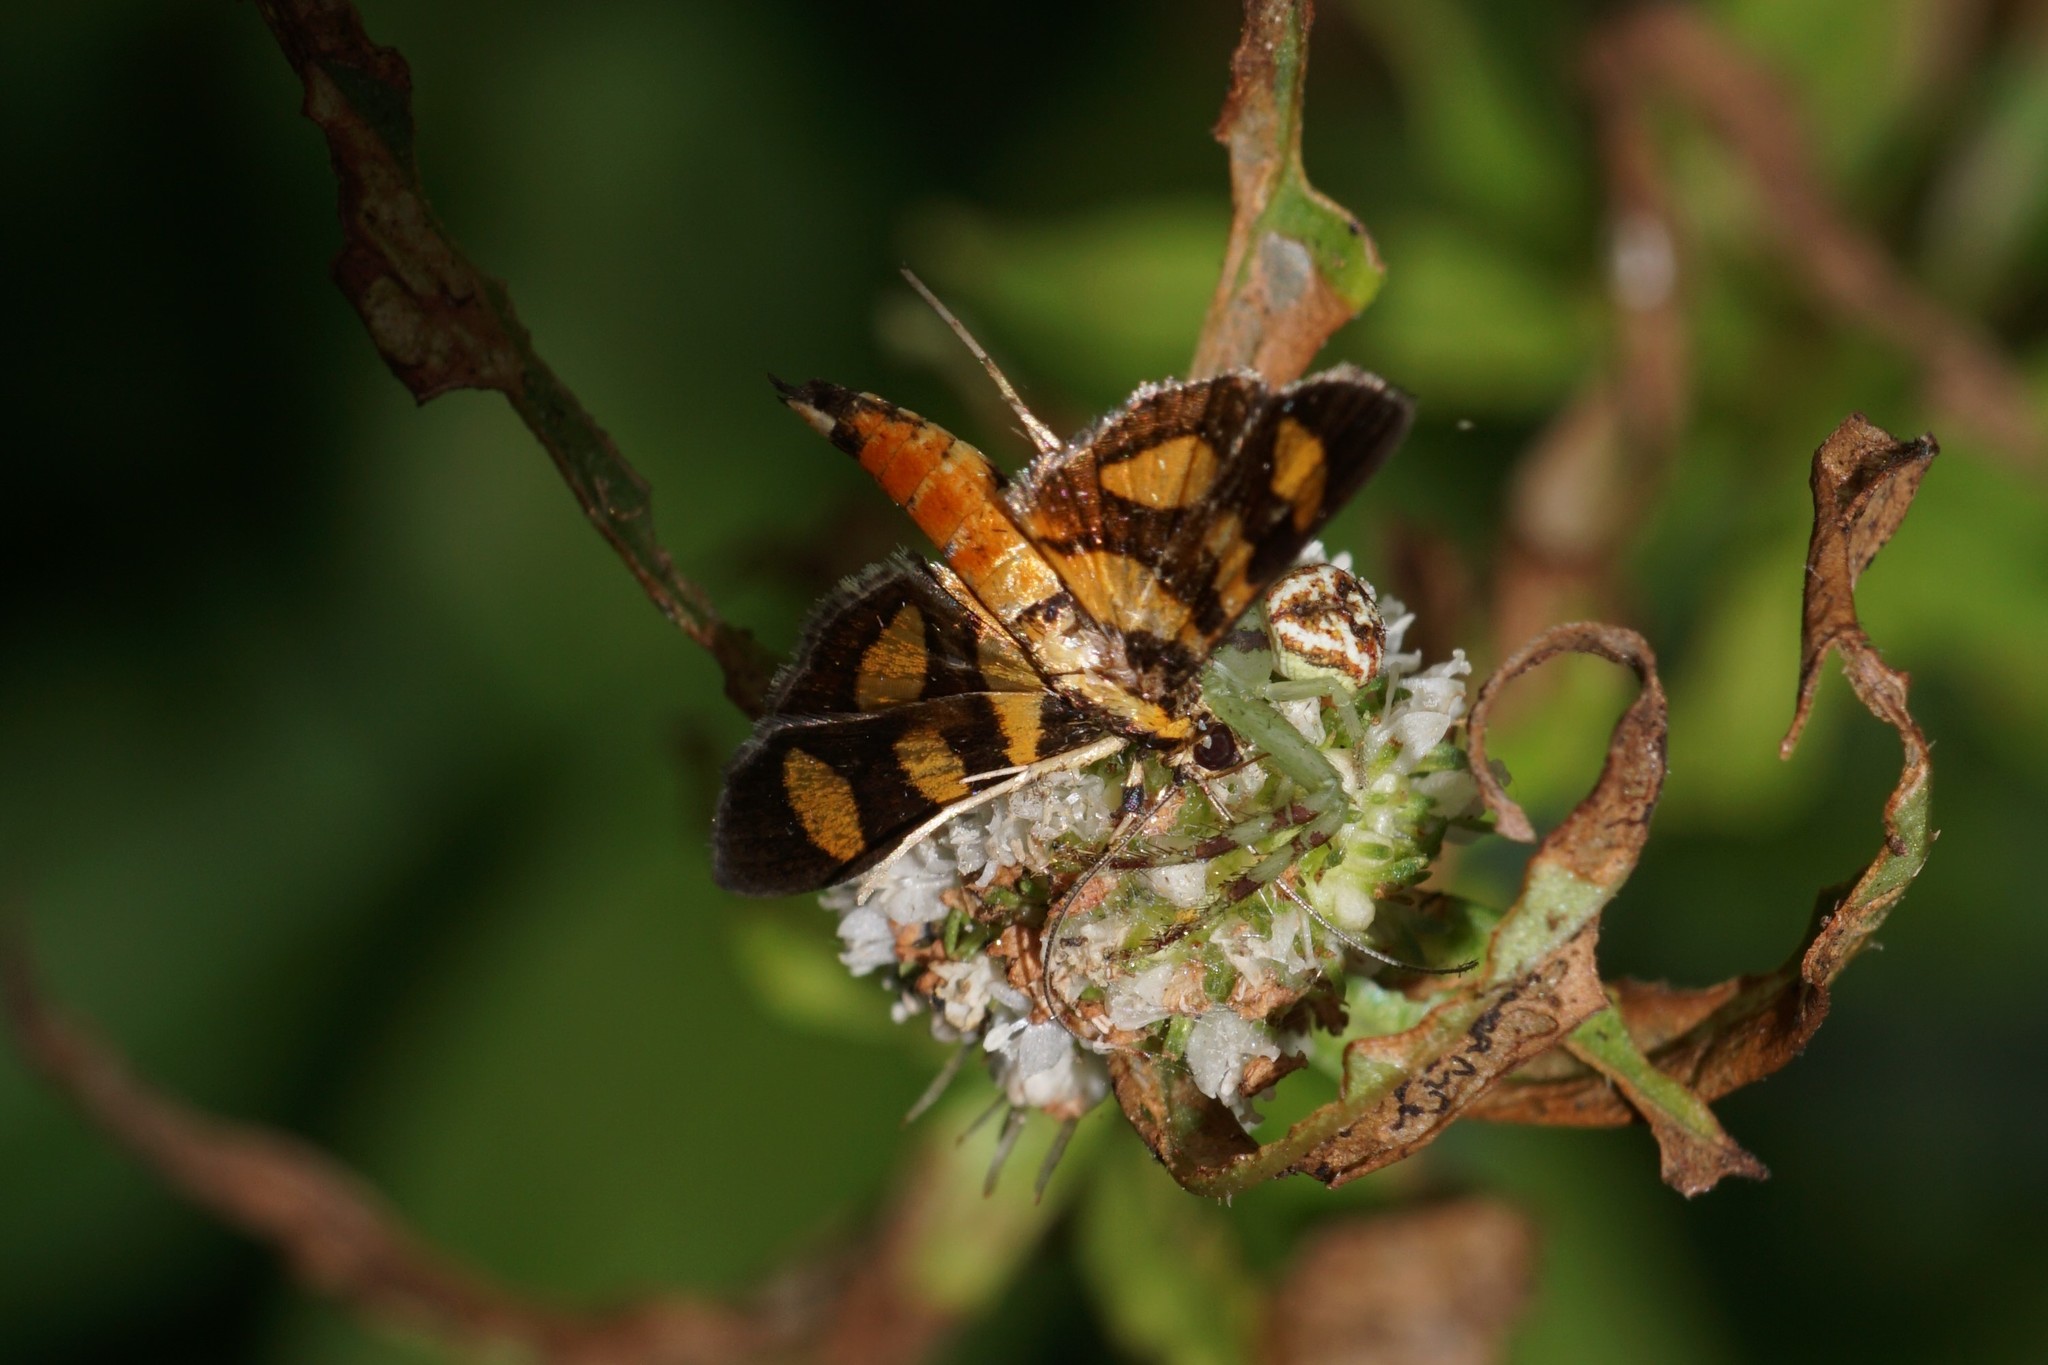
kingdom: Animalia
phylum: Arthropoda
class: Insecta
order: Lepidoptera
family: Crambidae
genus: Syngamia
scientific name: Syngamia florella
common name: Orange-spotted flower moth
